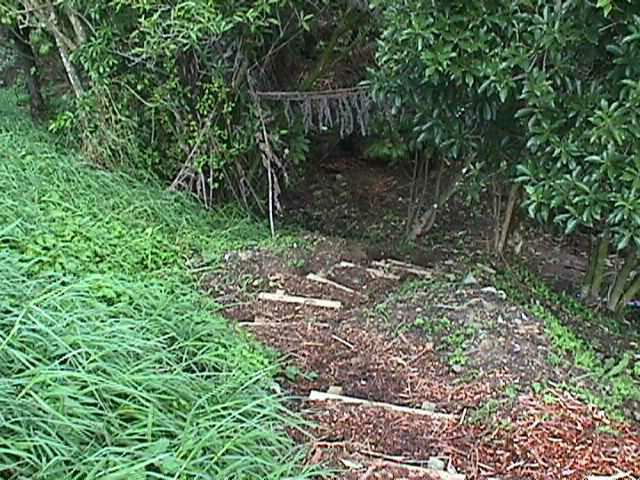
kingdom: Plantae
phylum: Tracheophyta
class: Liliopsida
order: Poales
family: Poaceae
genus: Cenchrus
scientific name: Cenchrus clandestinus
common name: Kikuyugrass
